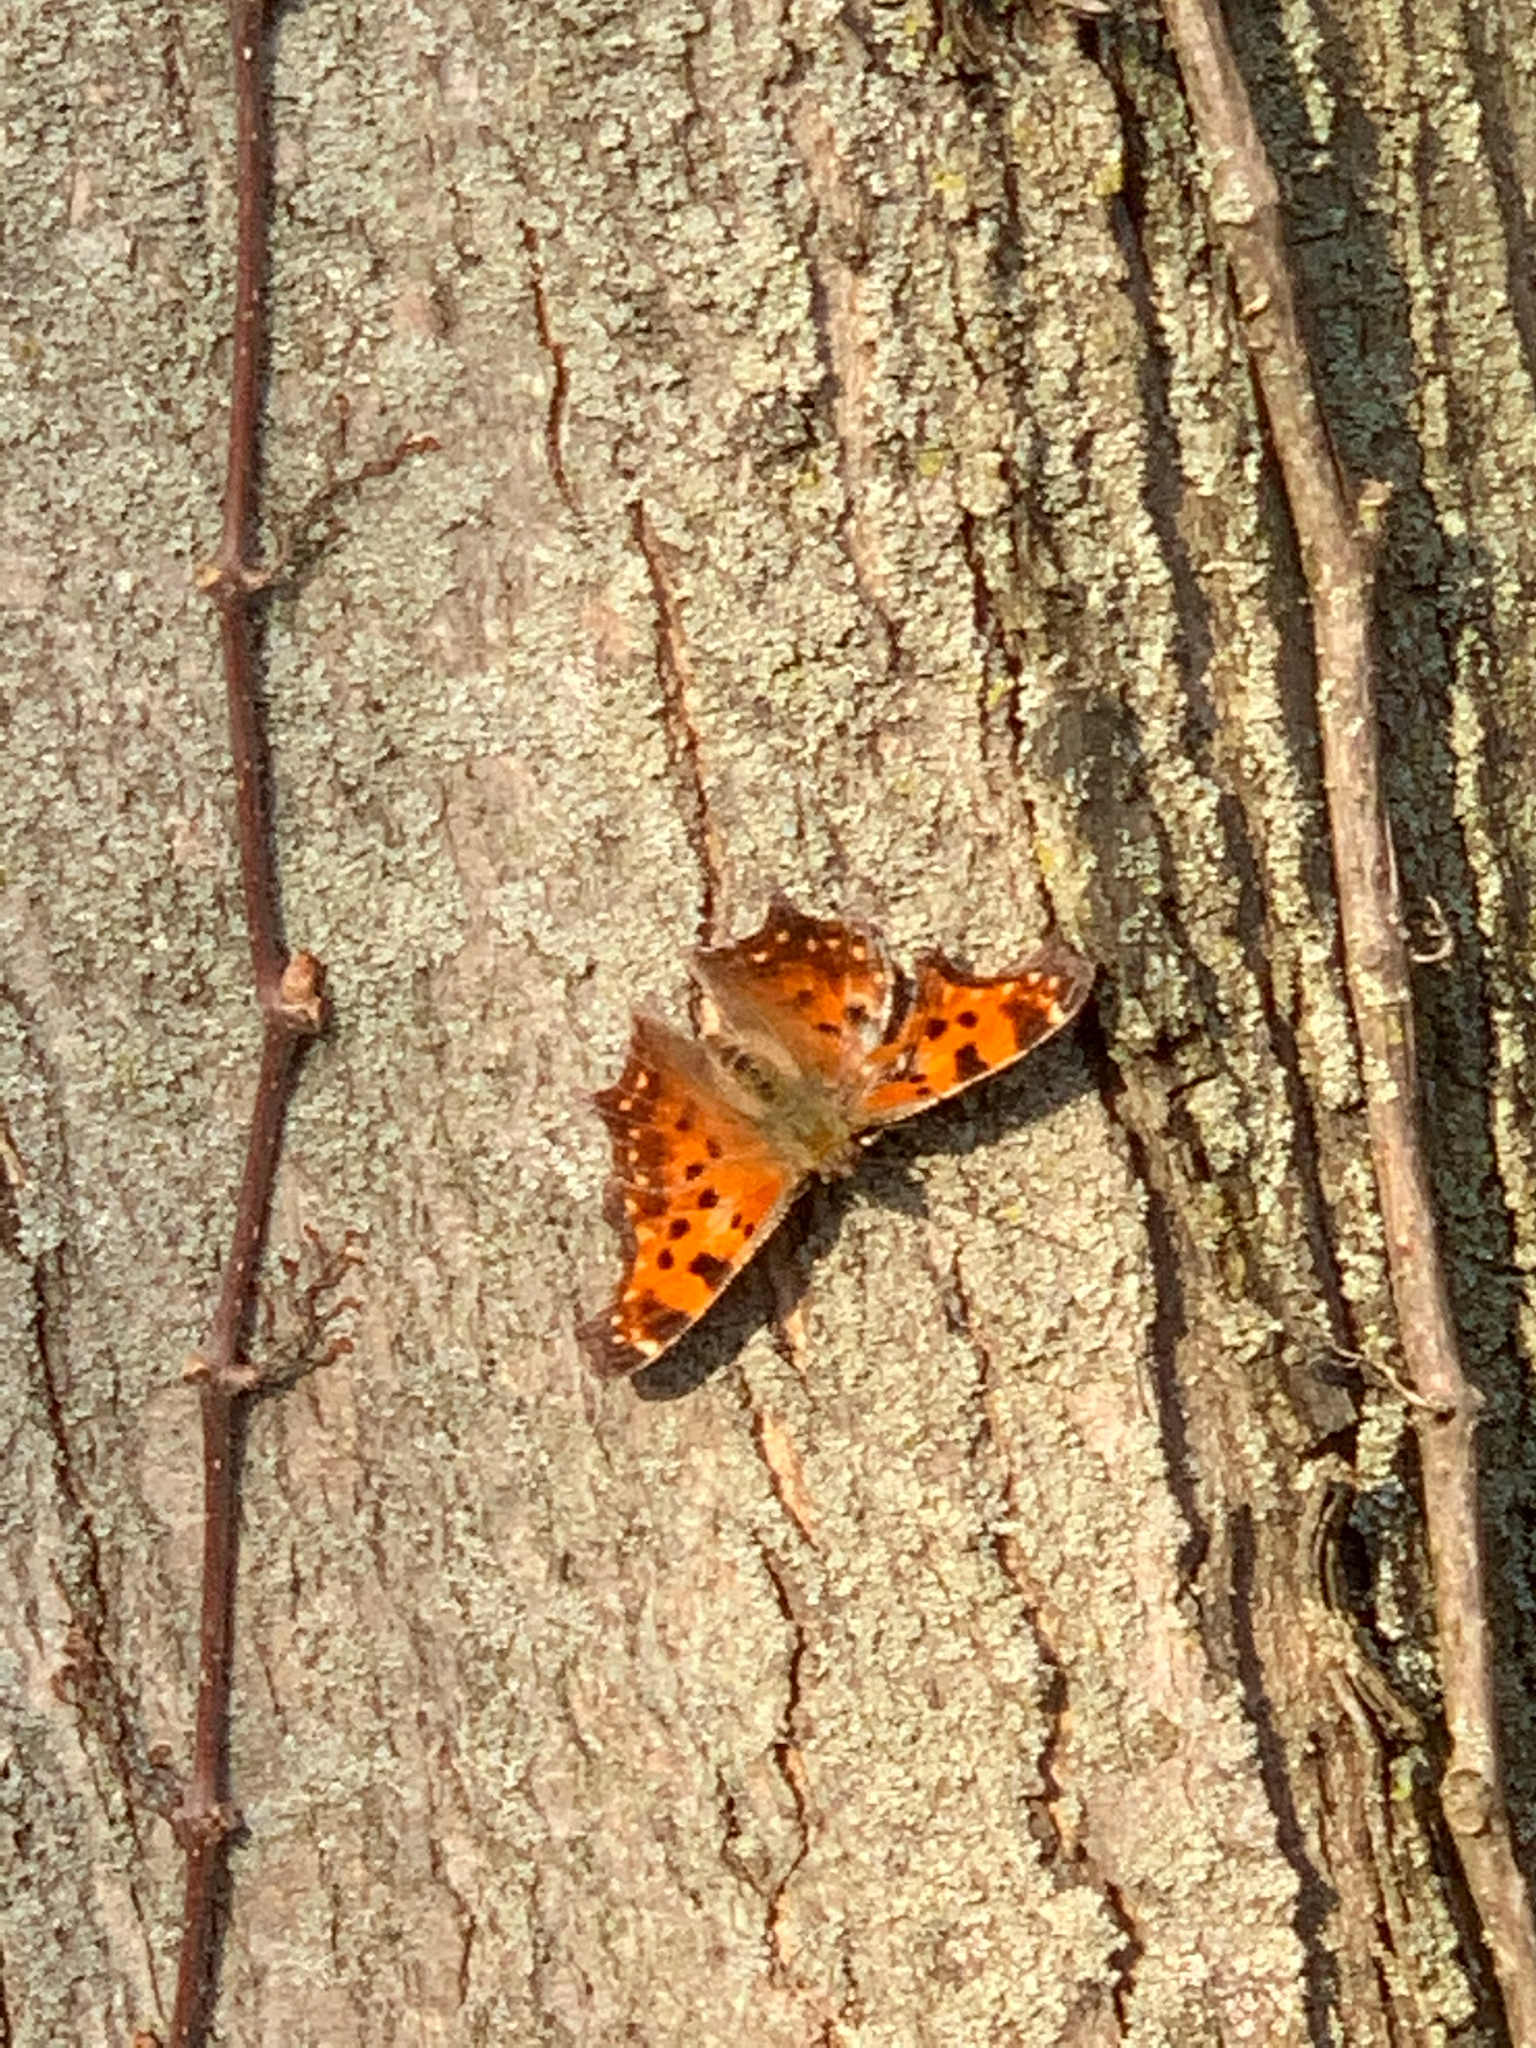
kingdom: Animalia
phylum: Arthropoda
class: Insecta
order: Lepidoptera
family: Nymphalidae
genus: Polygonia
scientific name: Polygonia comma
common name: Eastern comma
